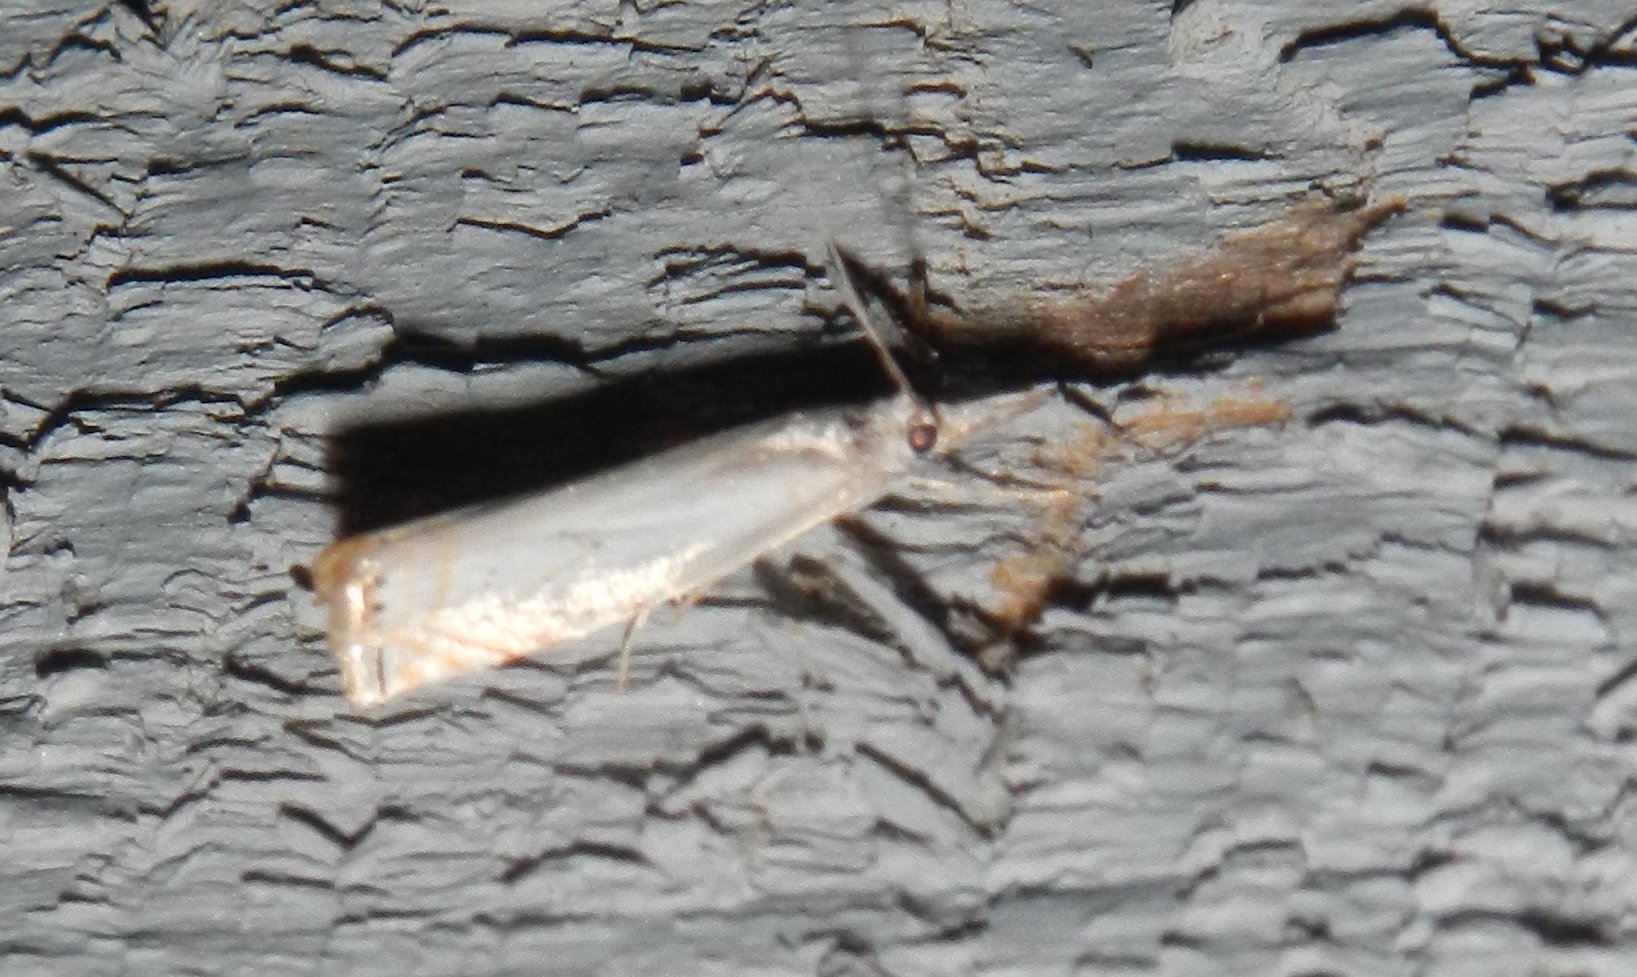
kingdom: Animalia
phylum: Arthropoda
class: Insecta
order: Lepidoptera
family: Crambidae
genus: Crambus
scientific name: Crambus albellus
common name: Small white grass-veneer
